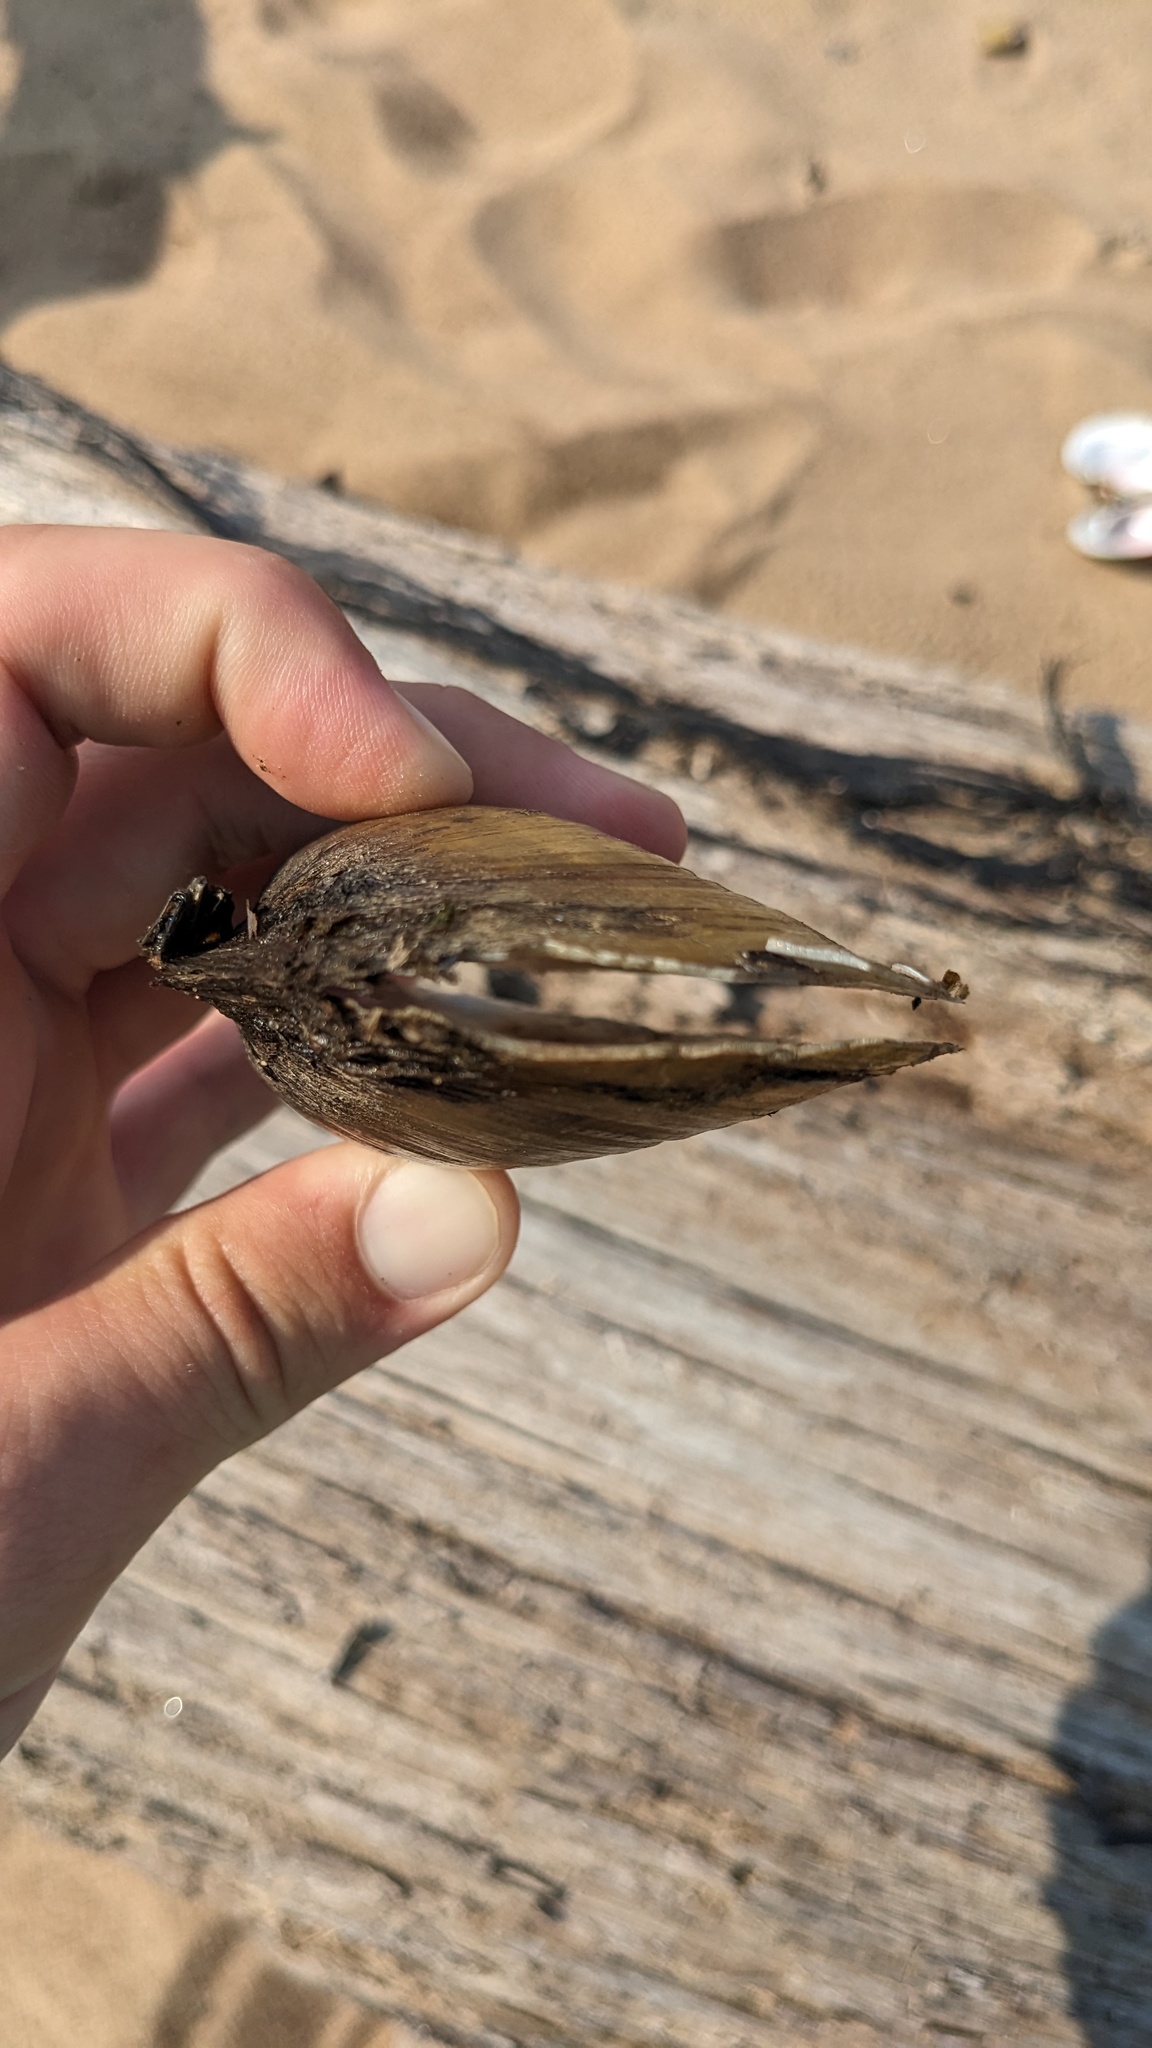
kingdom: Animalia
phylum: Mollusca
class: Bivalvia
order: Unionida
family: Unionidae
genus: Potamilus
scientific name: Potamilus fragilis
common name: Fragile papershell
